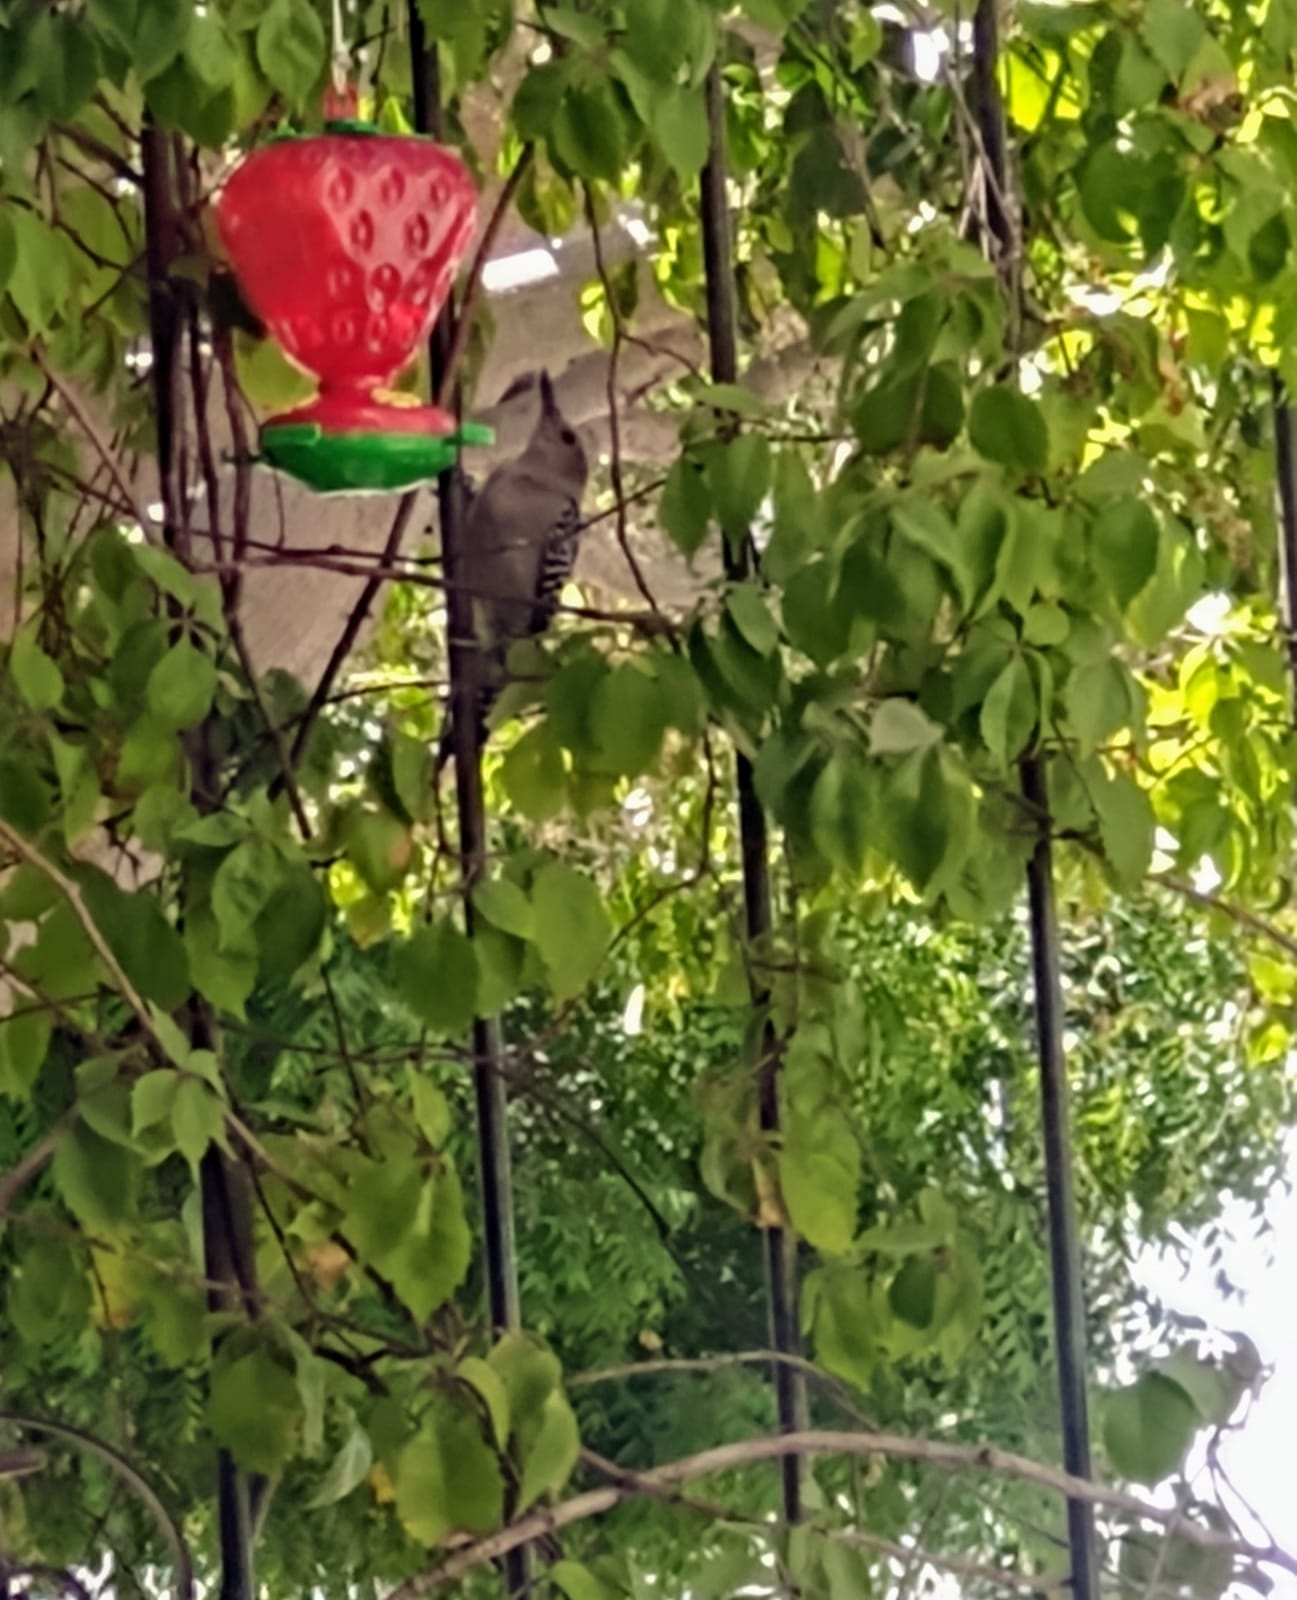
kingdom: Animalia
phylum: Chordata
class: Aves
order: Piciformes
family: Picidae
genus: Melanerpes
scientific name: Melanerpes uropygialis
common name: Gila woodpecker
